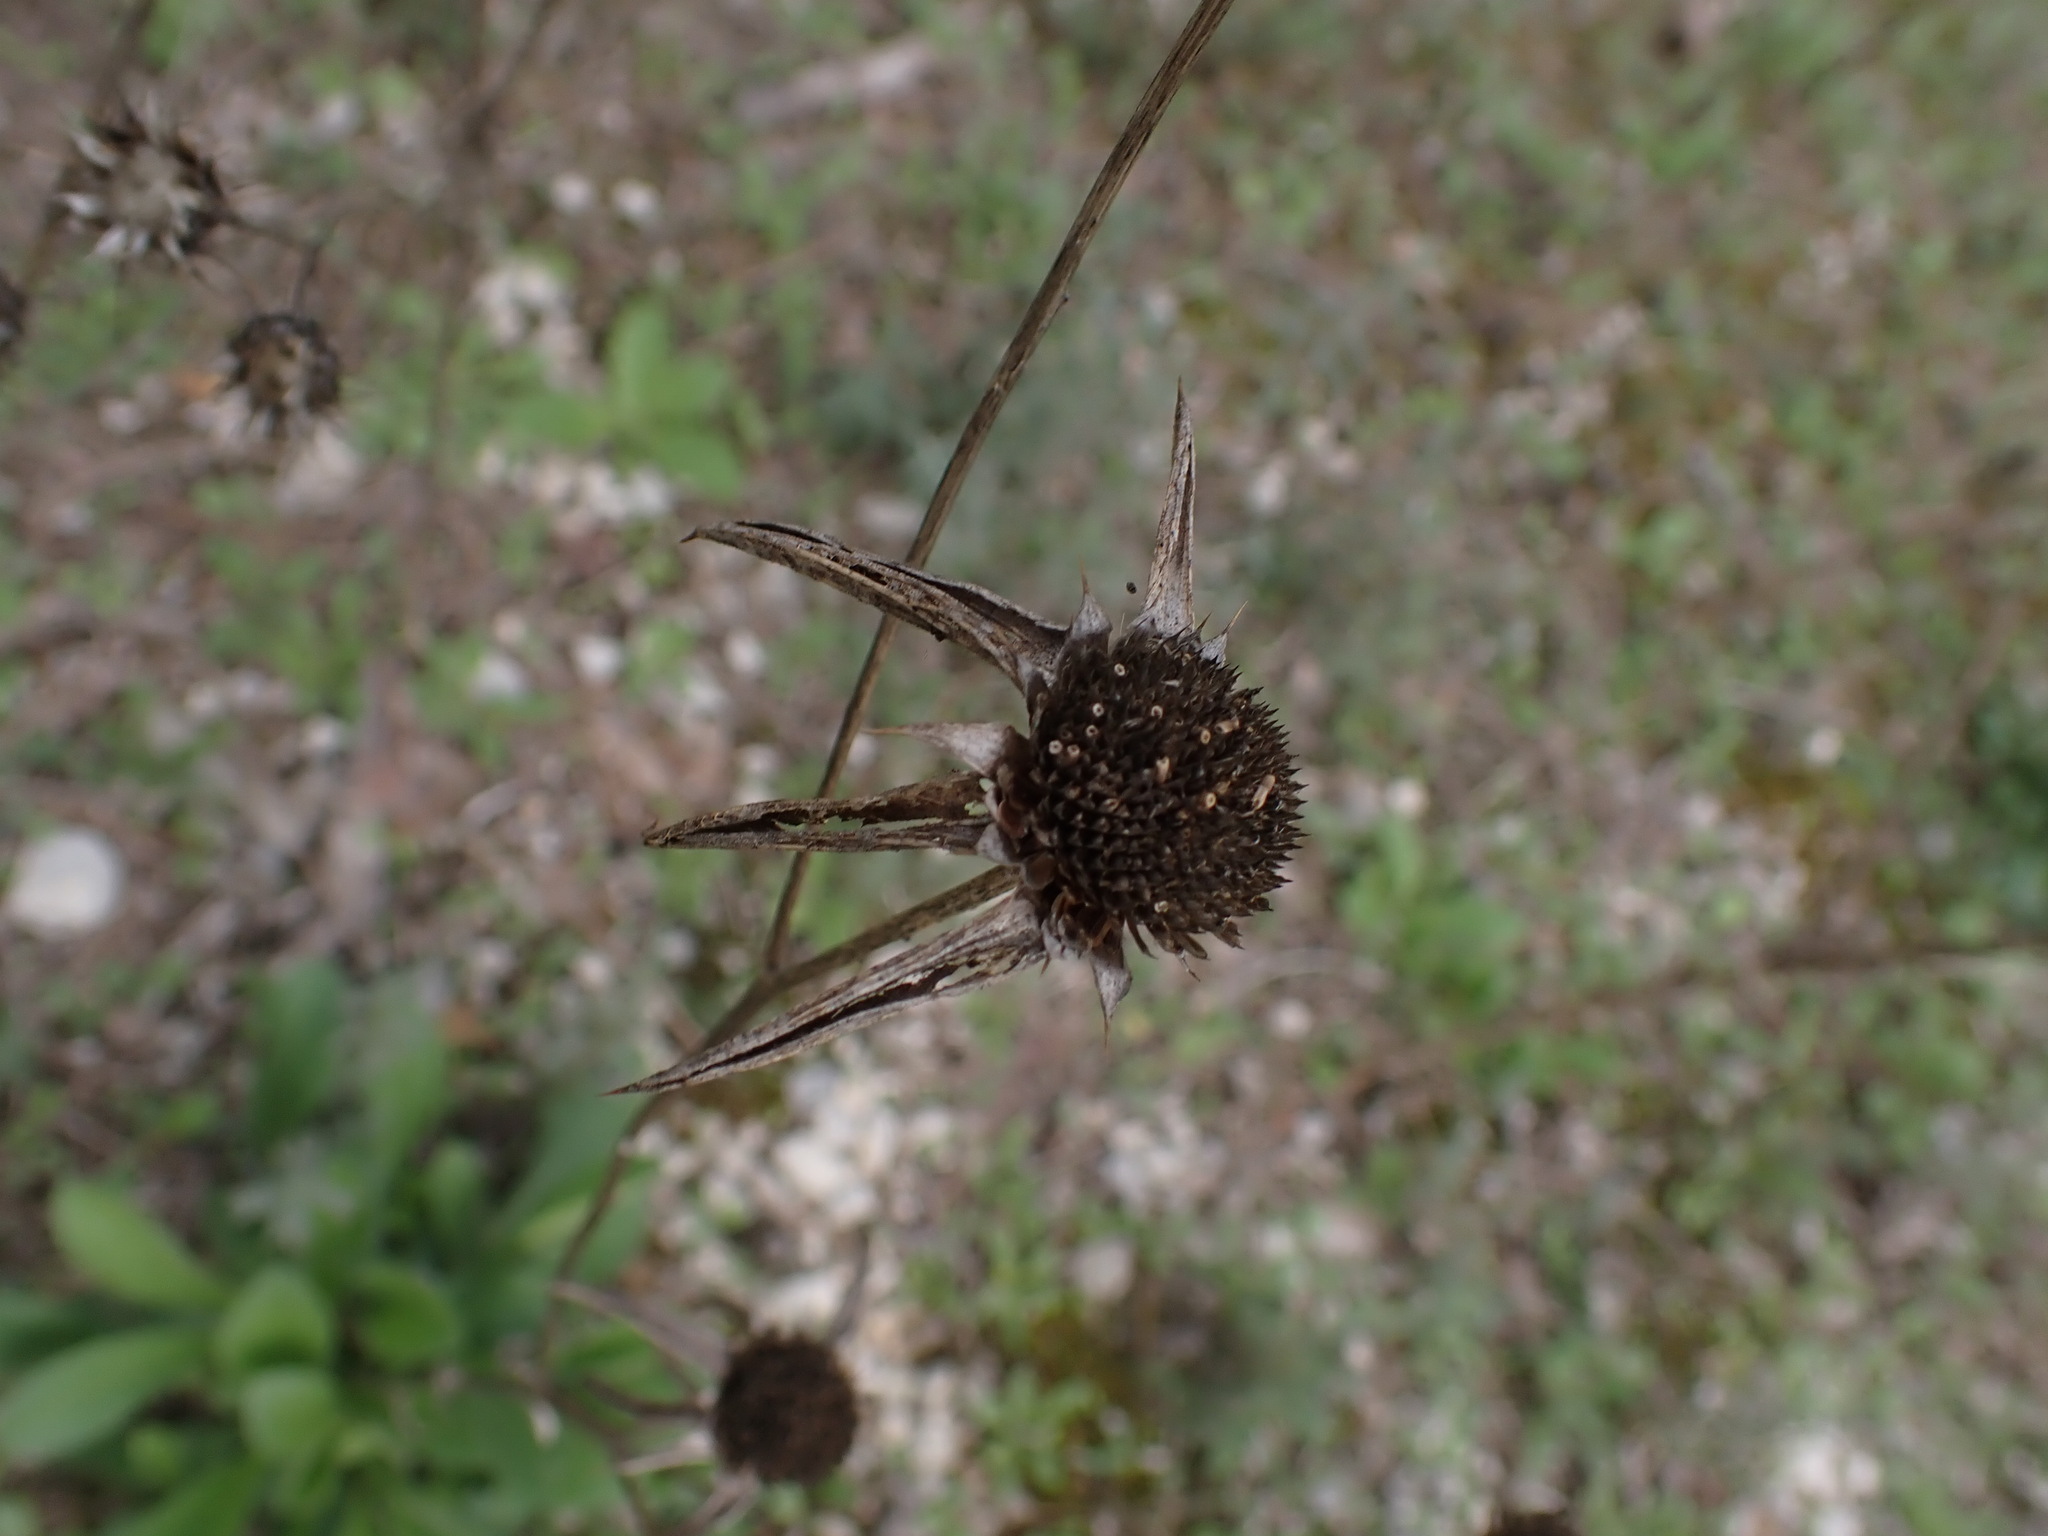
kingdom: Plantae
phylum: Tracheophyta
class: Magnoliopsida
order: Asterales
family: Asteraceae
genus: Pallenis
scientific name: Pallenis spinosa
